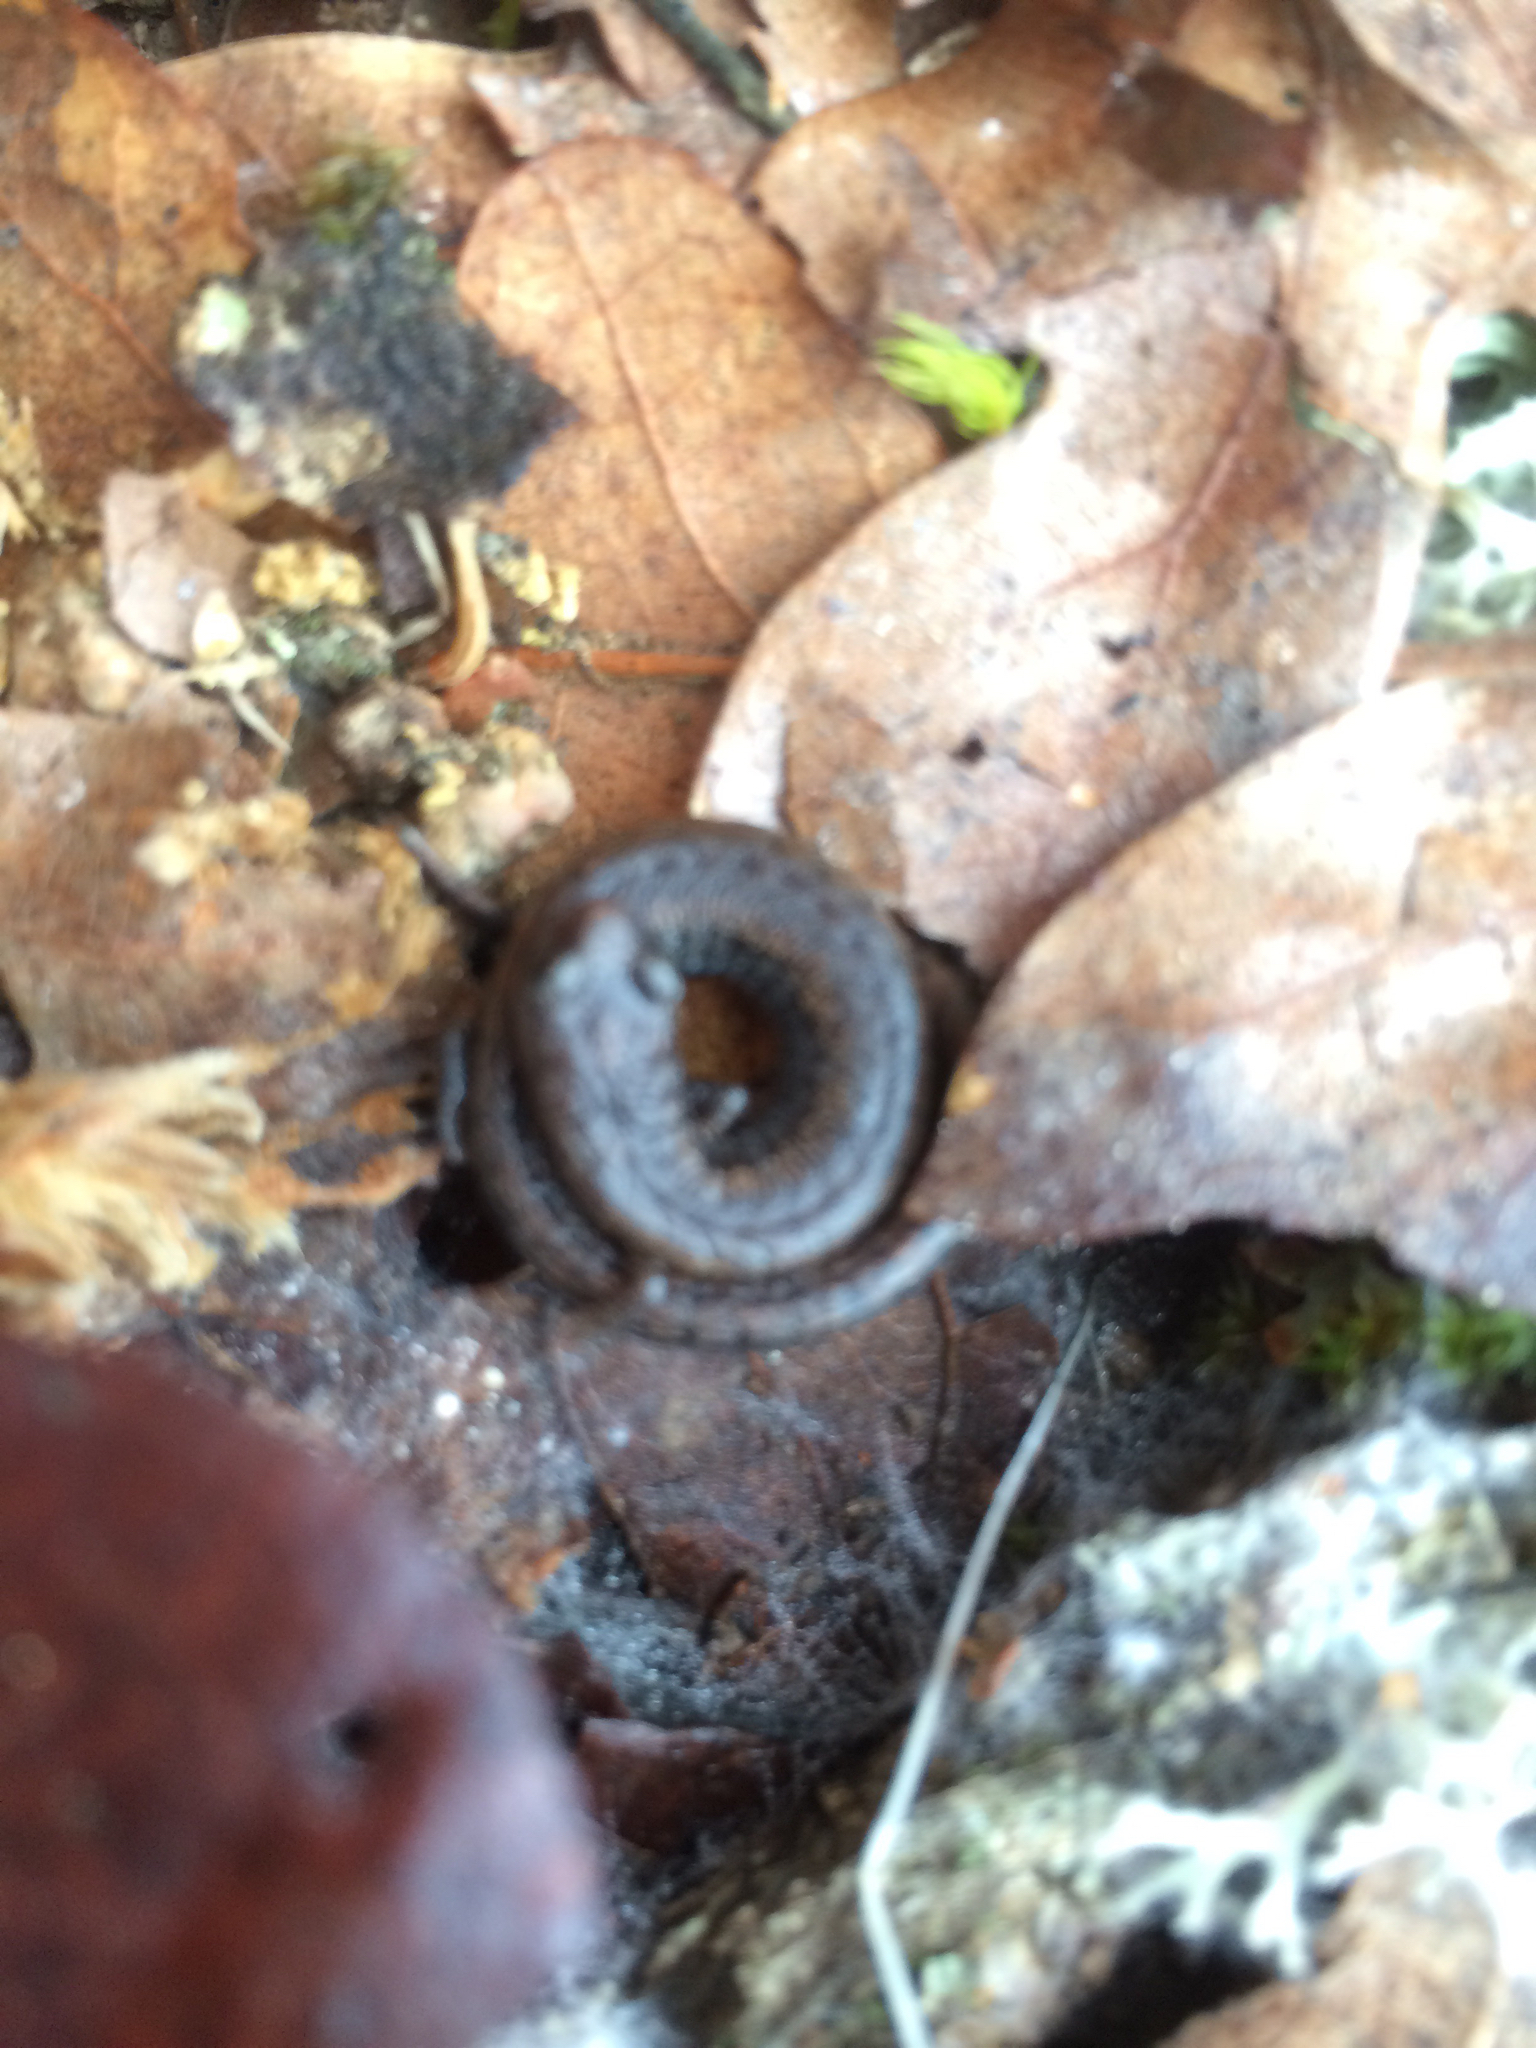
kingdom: Animalia
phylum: Chordata
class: Amphibia
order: Caudata
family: Plethodontidae
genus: Batrachoseps
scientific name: Batrachoseps attenuatus
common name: California slender salamander
